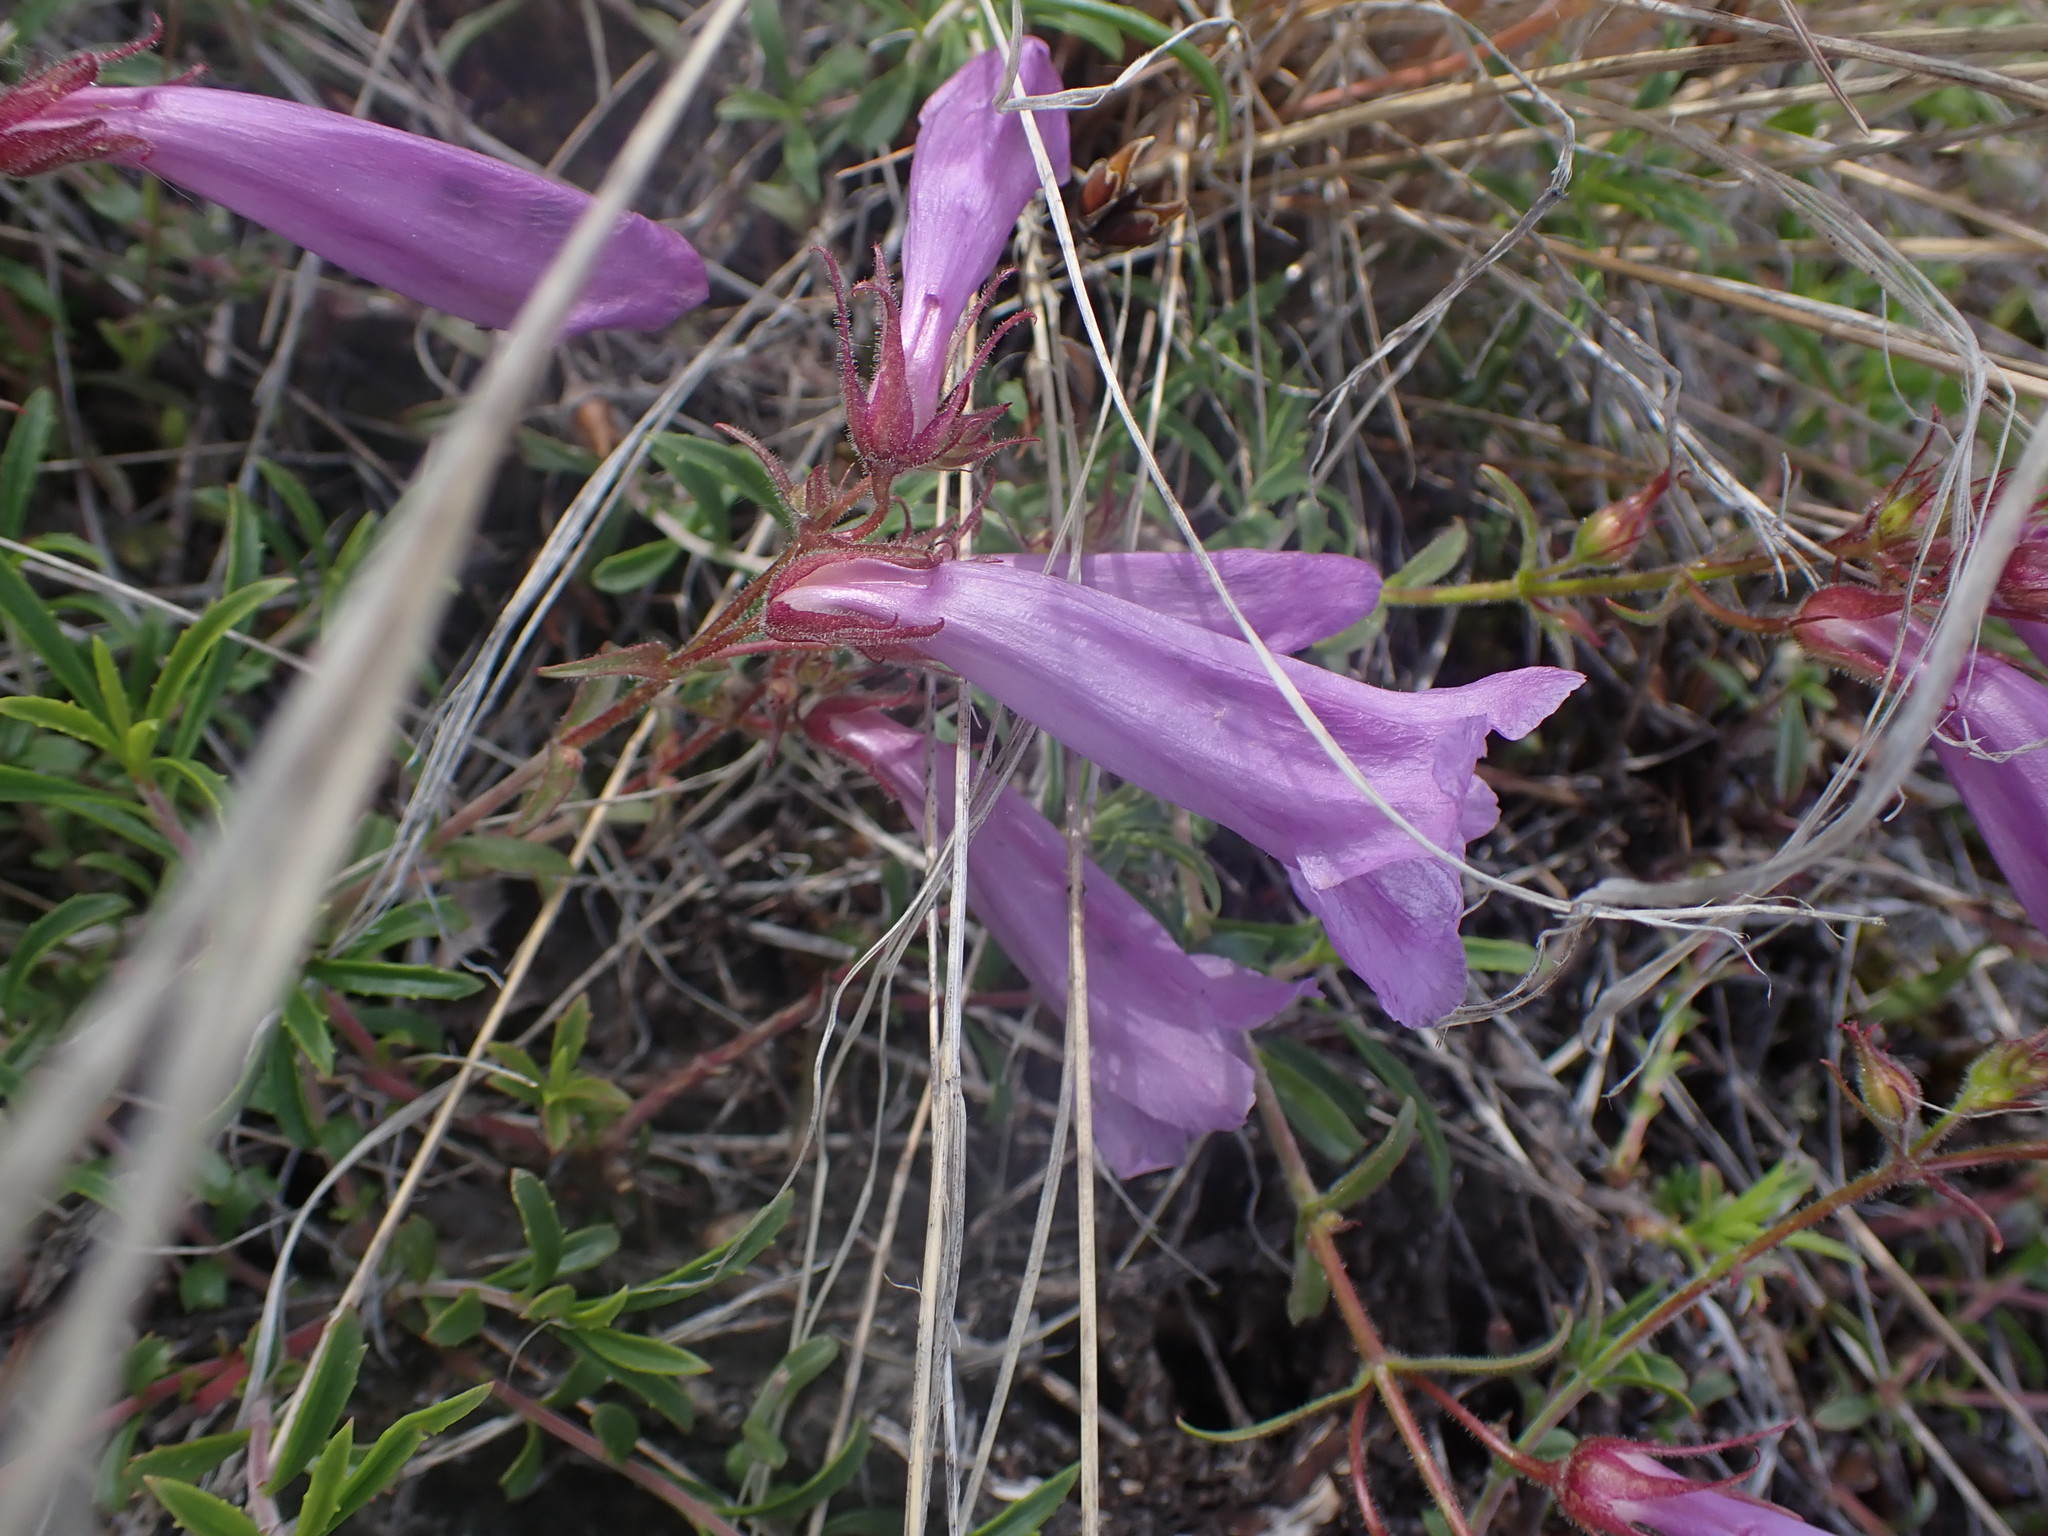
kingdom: Plantae
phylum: Tracheophyta
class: Magnoliopsida
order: Lamiales
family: Plantaginaceae
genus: Penstemon
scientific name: Penstemon fruticosus
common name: Bush penstemon
